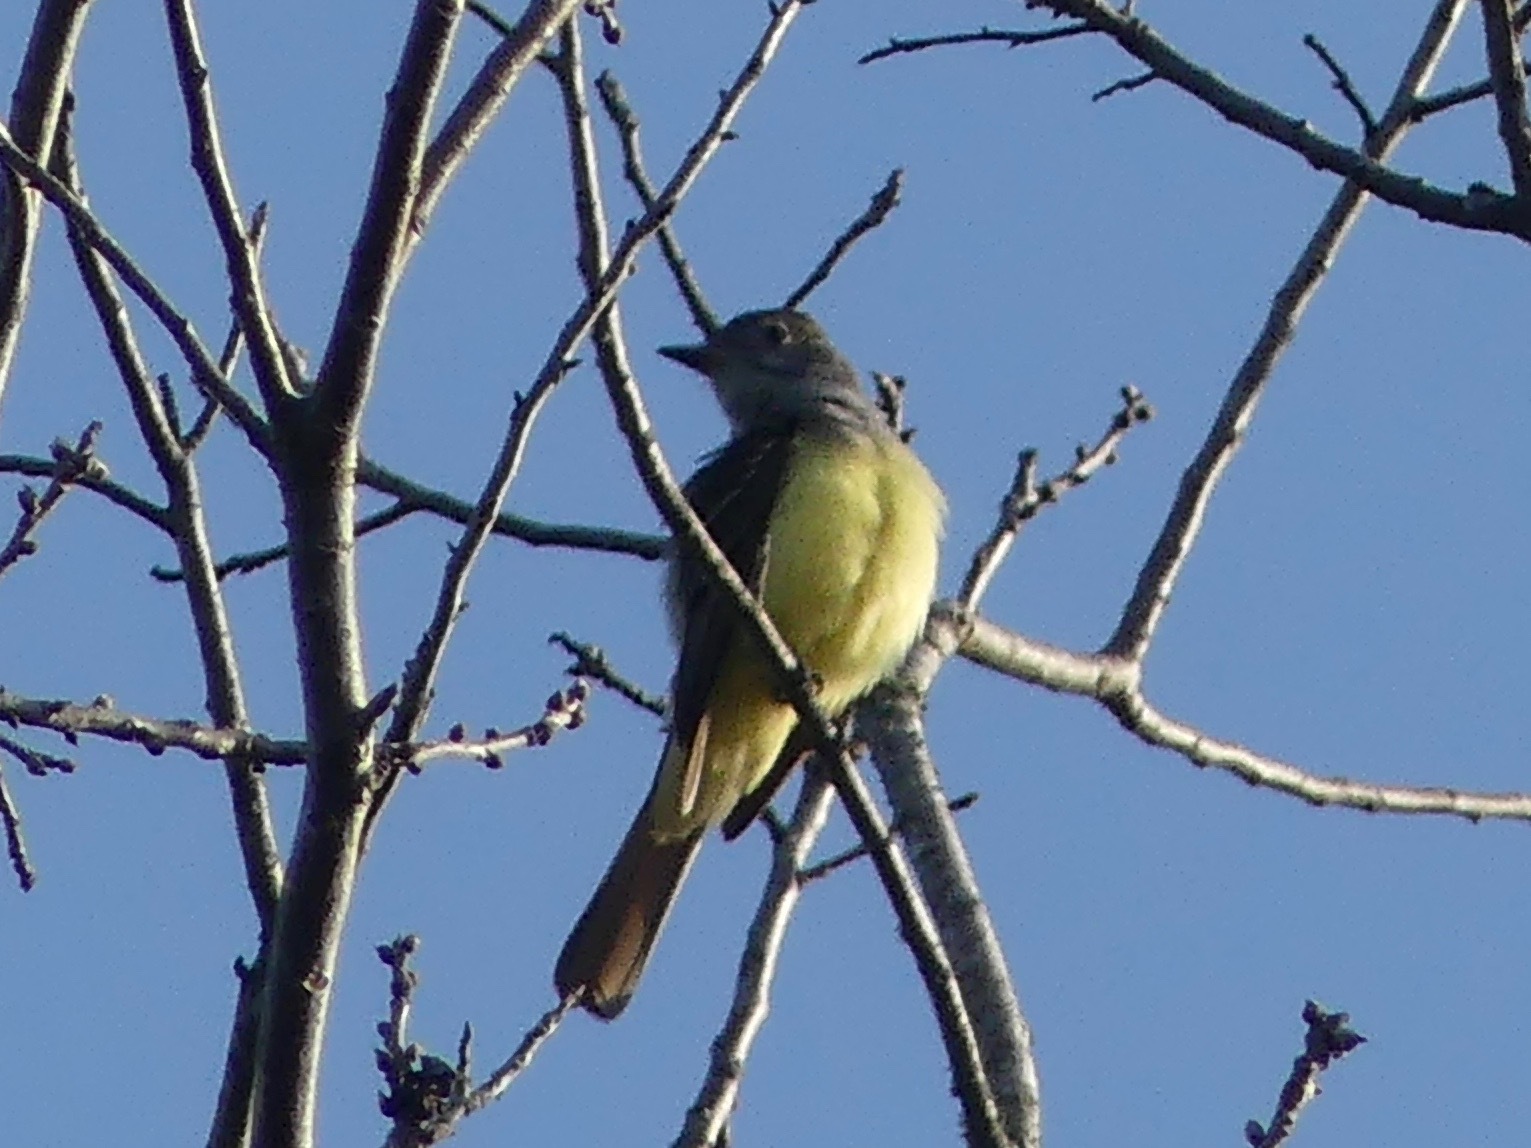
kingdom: Animalia
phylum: Chordata
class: Aves
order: Passeriformes
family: Tyrannidae
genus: Myiarchus
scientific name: Myiarchus crinitus
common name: Great crested flycatcher
